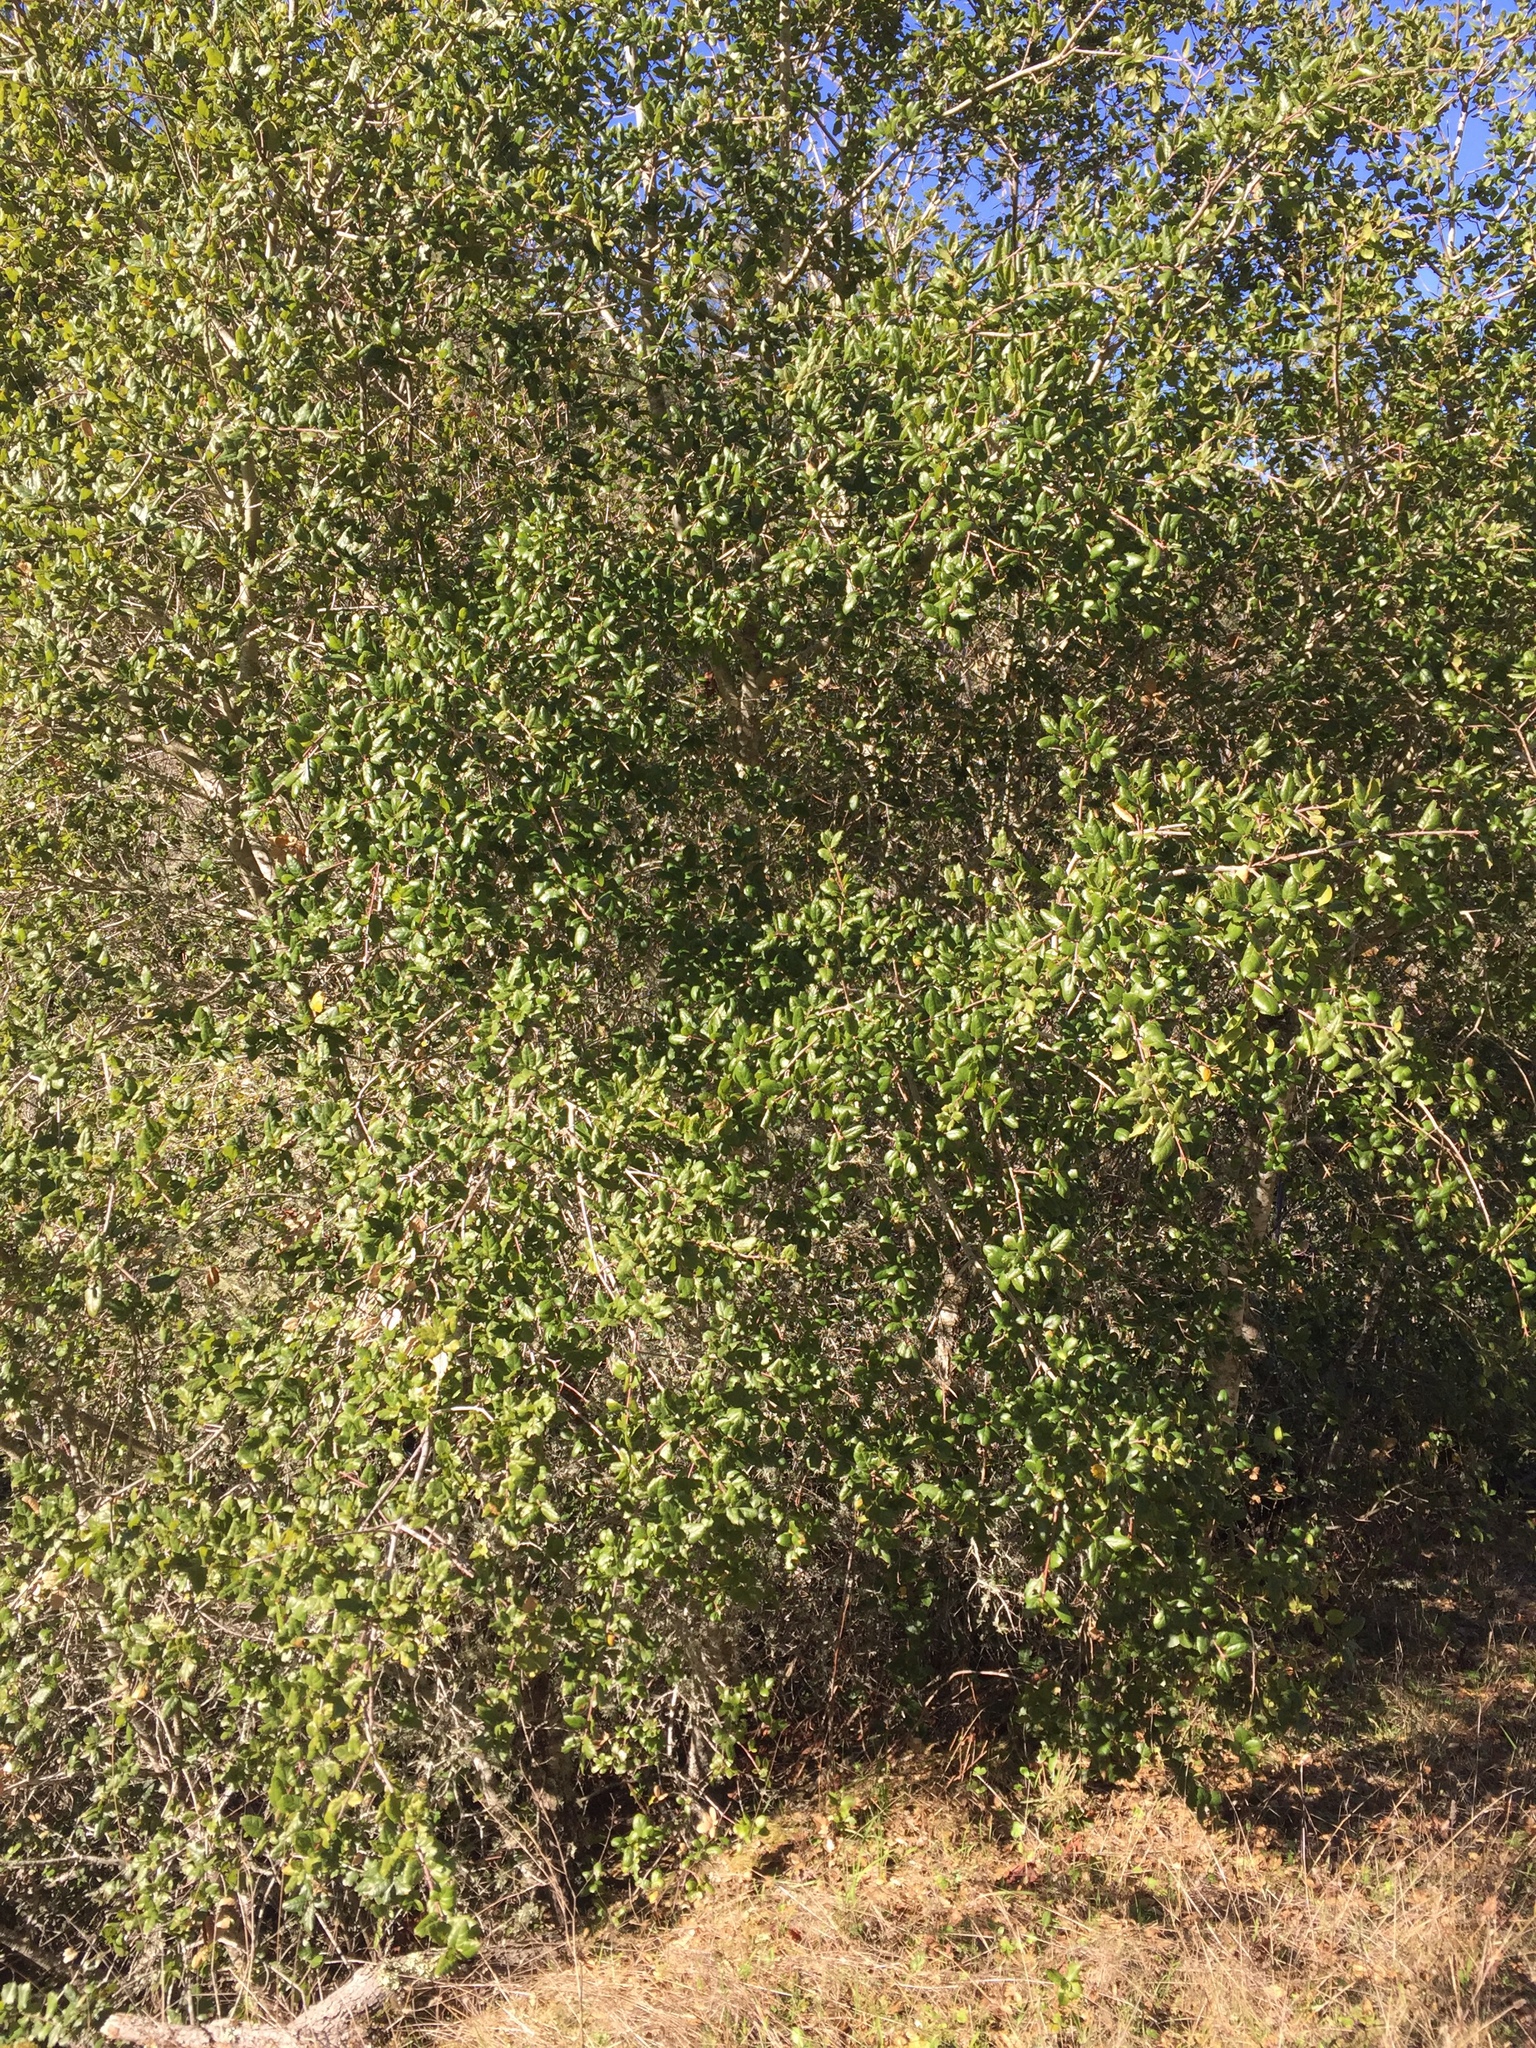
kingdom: Plantae
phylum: Tracheophyta
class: Magnoliopsida
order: Fagales
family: Fagaceae
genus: Quercus
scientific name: Quercus agrifolia
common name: California live oak
